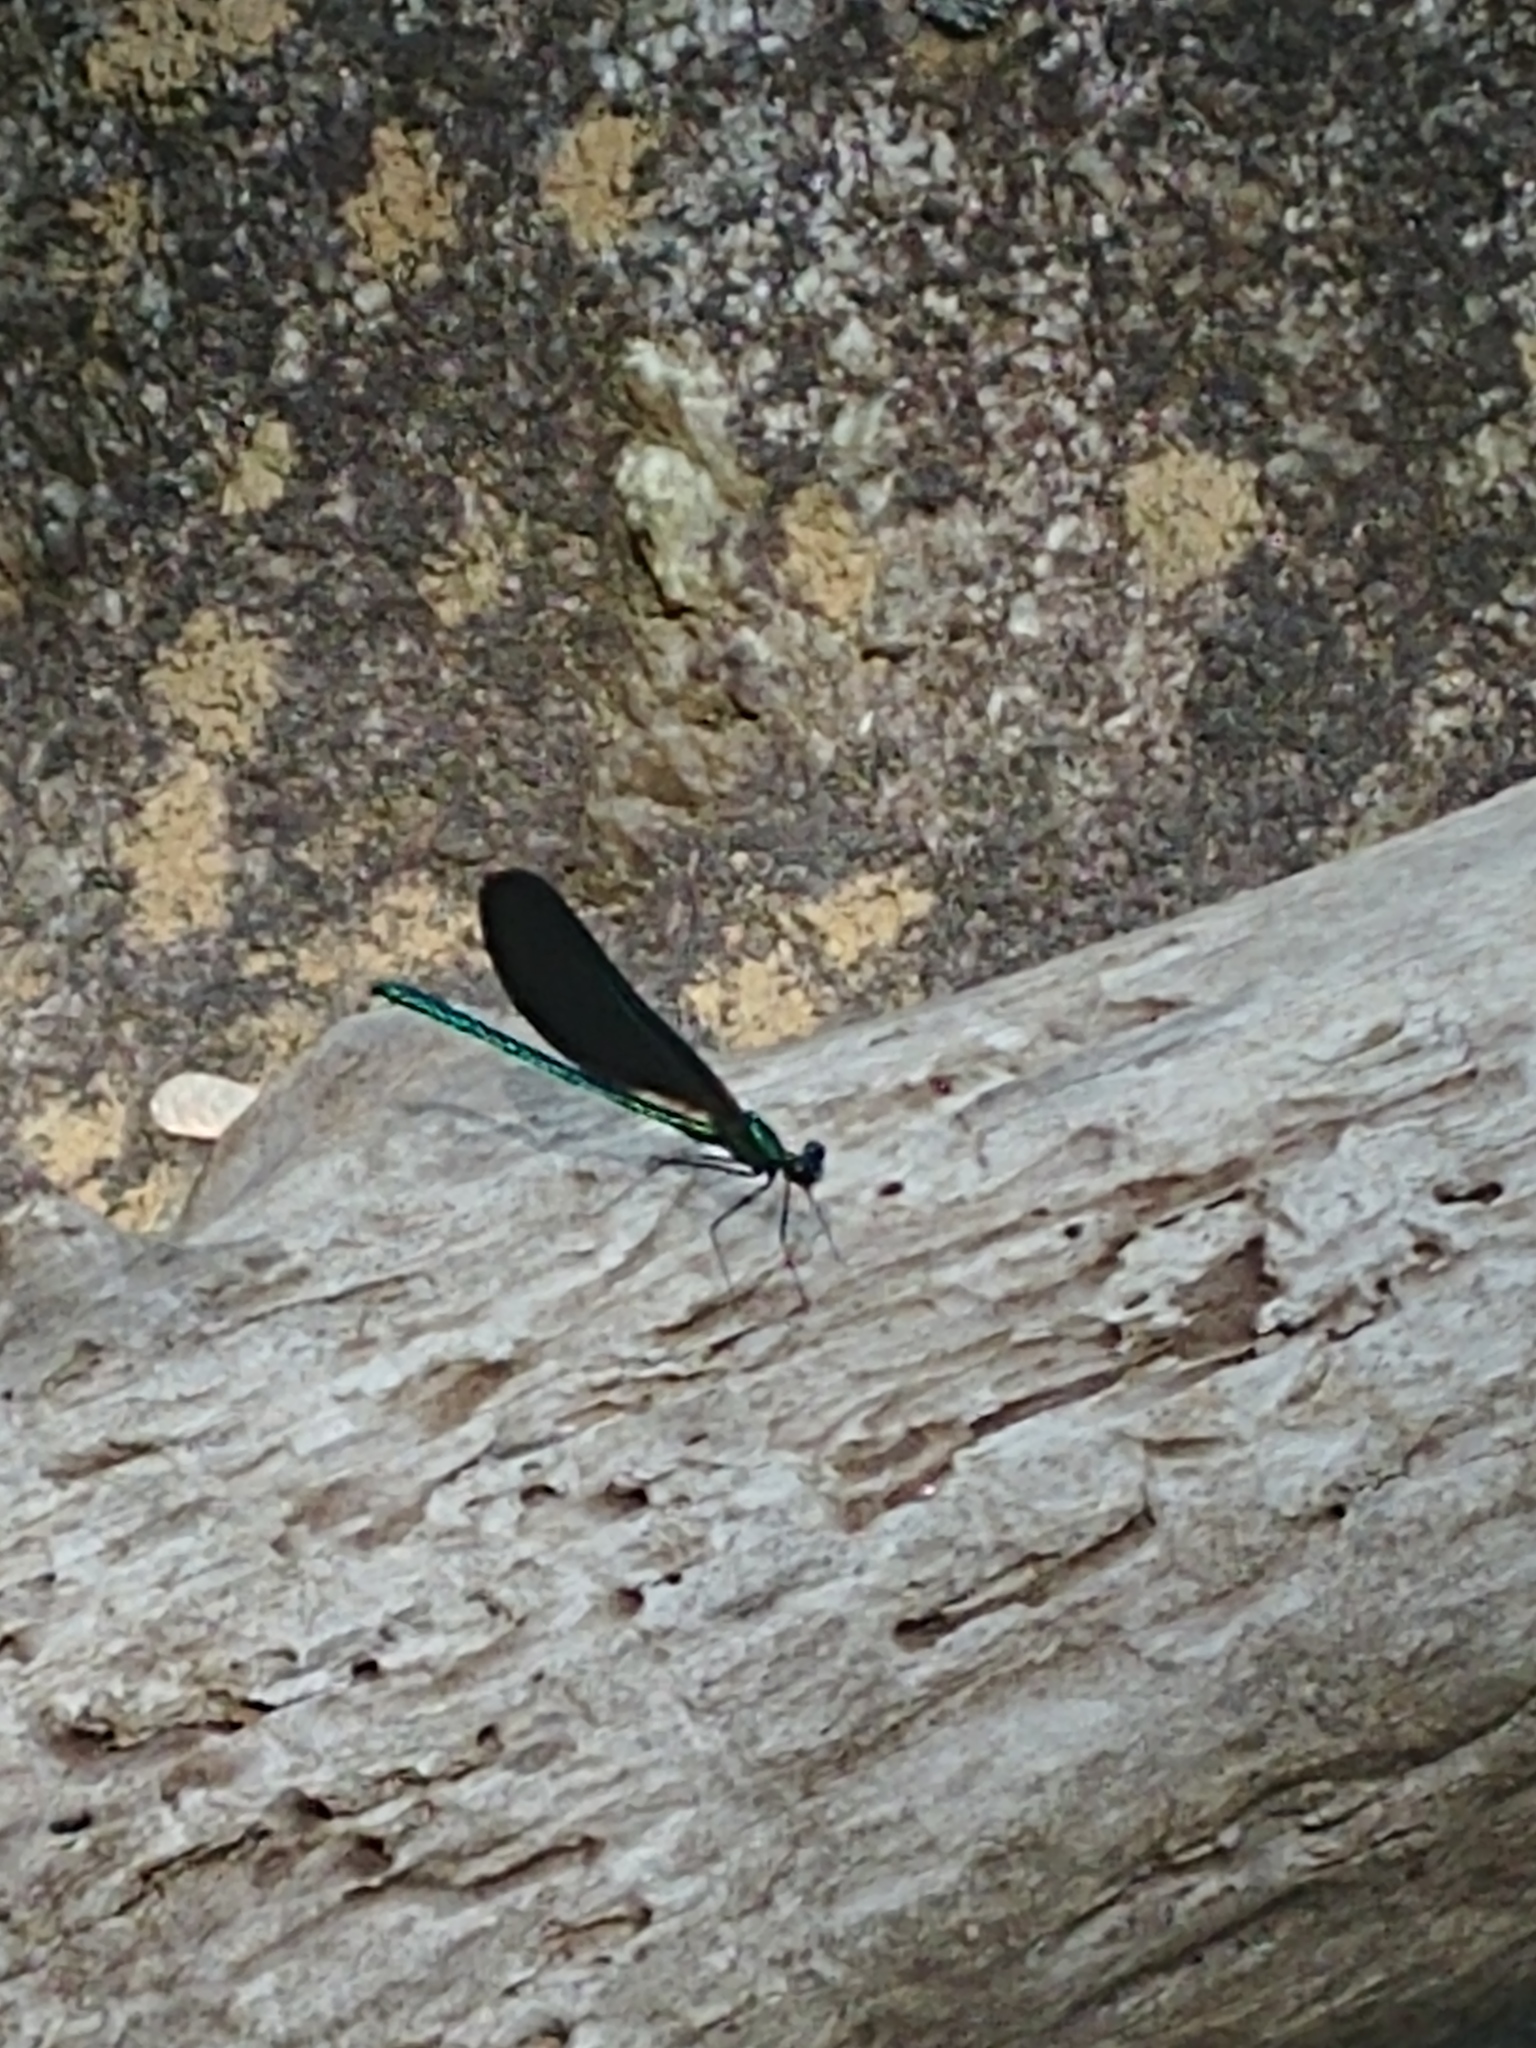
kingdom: Animalia
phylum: Arthropoda
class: Insecta
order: Odonata
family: Calopterygidae
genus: Calopteryx
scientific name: Calopteryx maculata
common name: Ebony jewelwing
